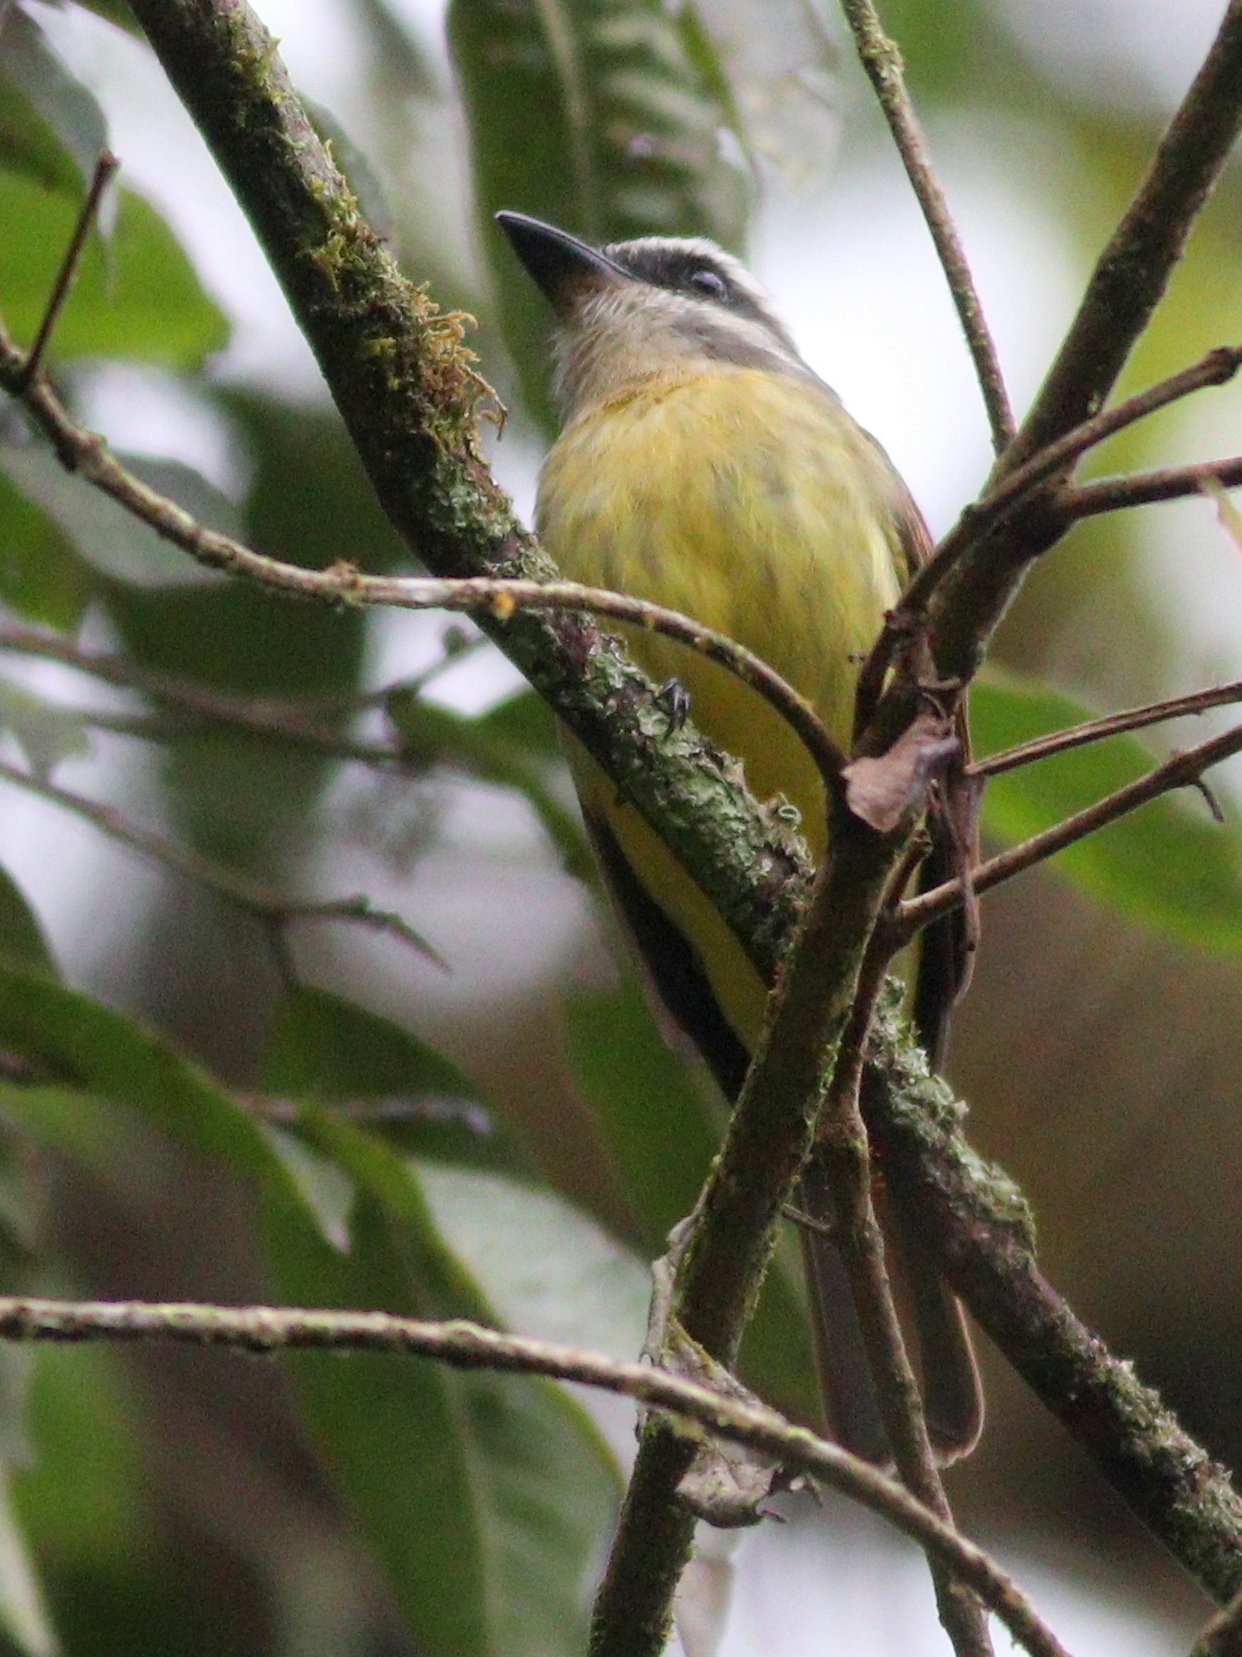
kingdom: Animalia
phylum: Chordata
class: Aves
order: Passeriformes
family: Tyrannidae
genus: Myiodynastes
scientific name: Myiodynastes hemichrysus
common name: Golden-bellied flycatcher
